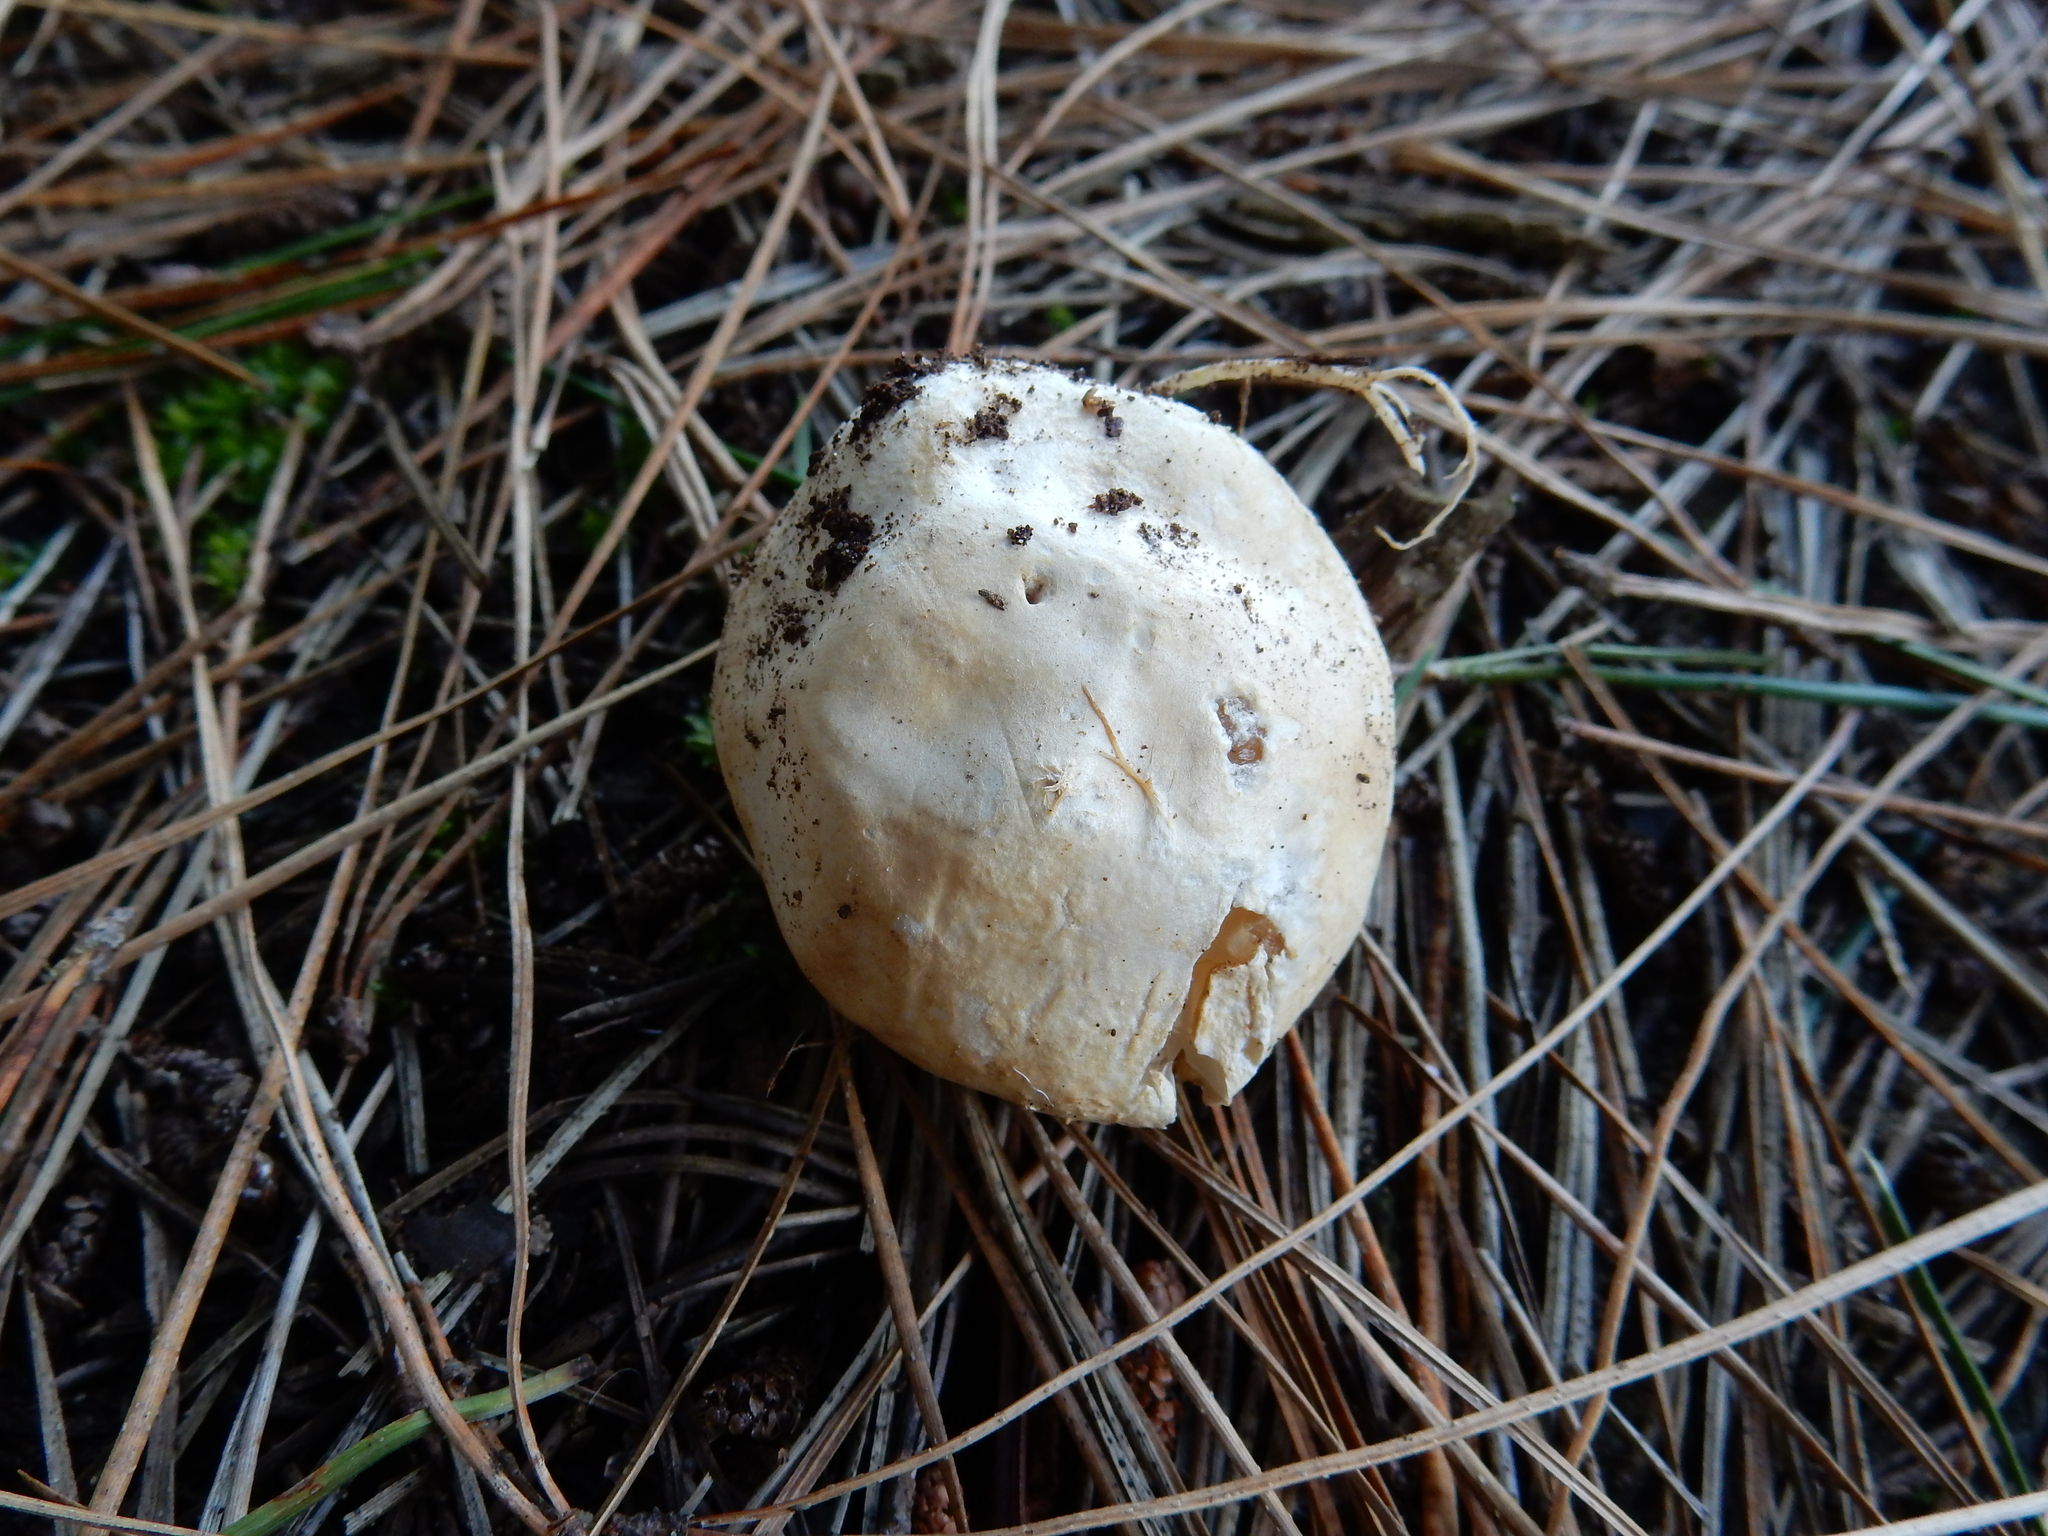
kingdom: Fungi
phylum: Basidiomycota
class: Agaricomycetes
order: Phallales
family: Phallaceae
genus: Ileodictyon
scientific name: Ileodictyon cibarium
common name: Basket fungus
